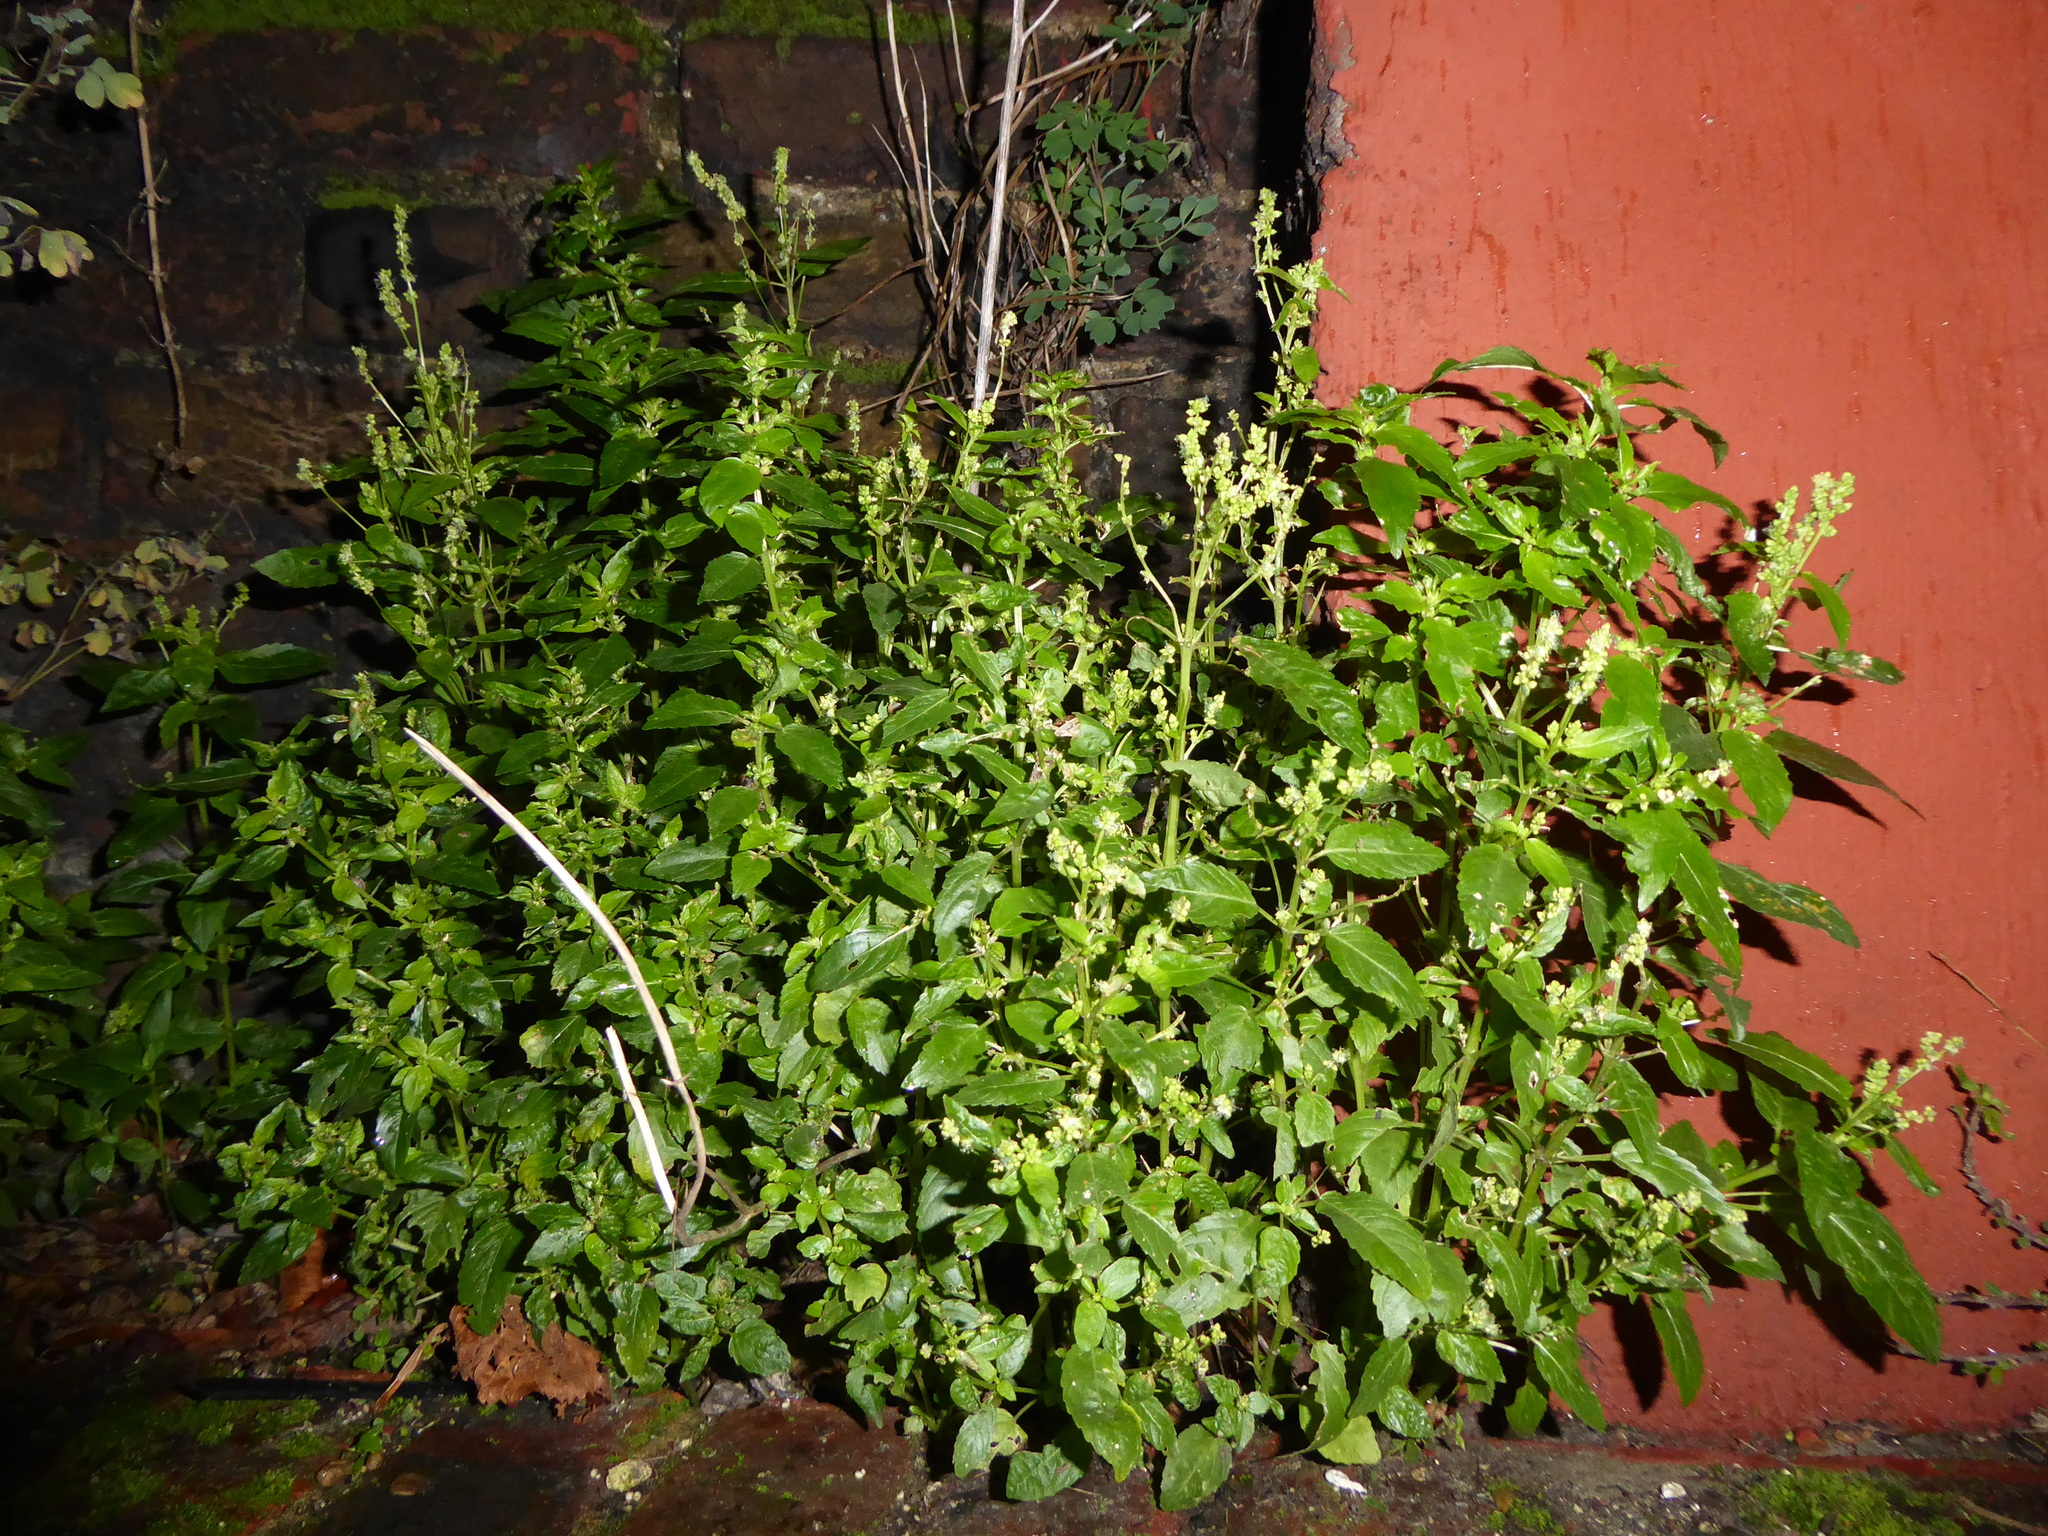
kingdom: Plantae
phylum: Tracheophyta
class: Magnoliopsida
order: Malpighiales
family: Euphorbiaceae
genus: Mercurialis
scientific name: Mercurialis annua
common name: Annual mercury
